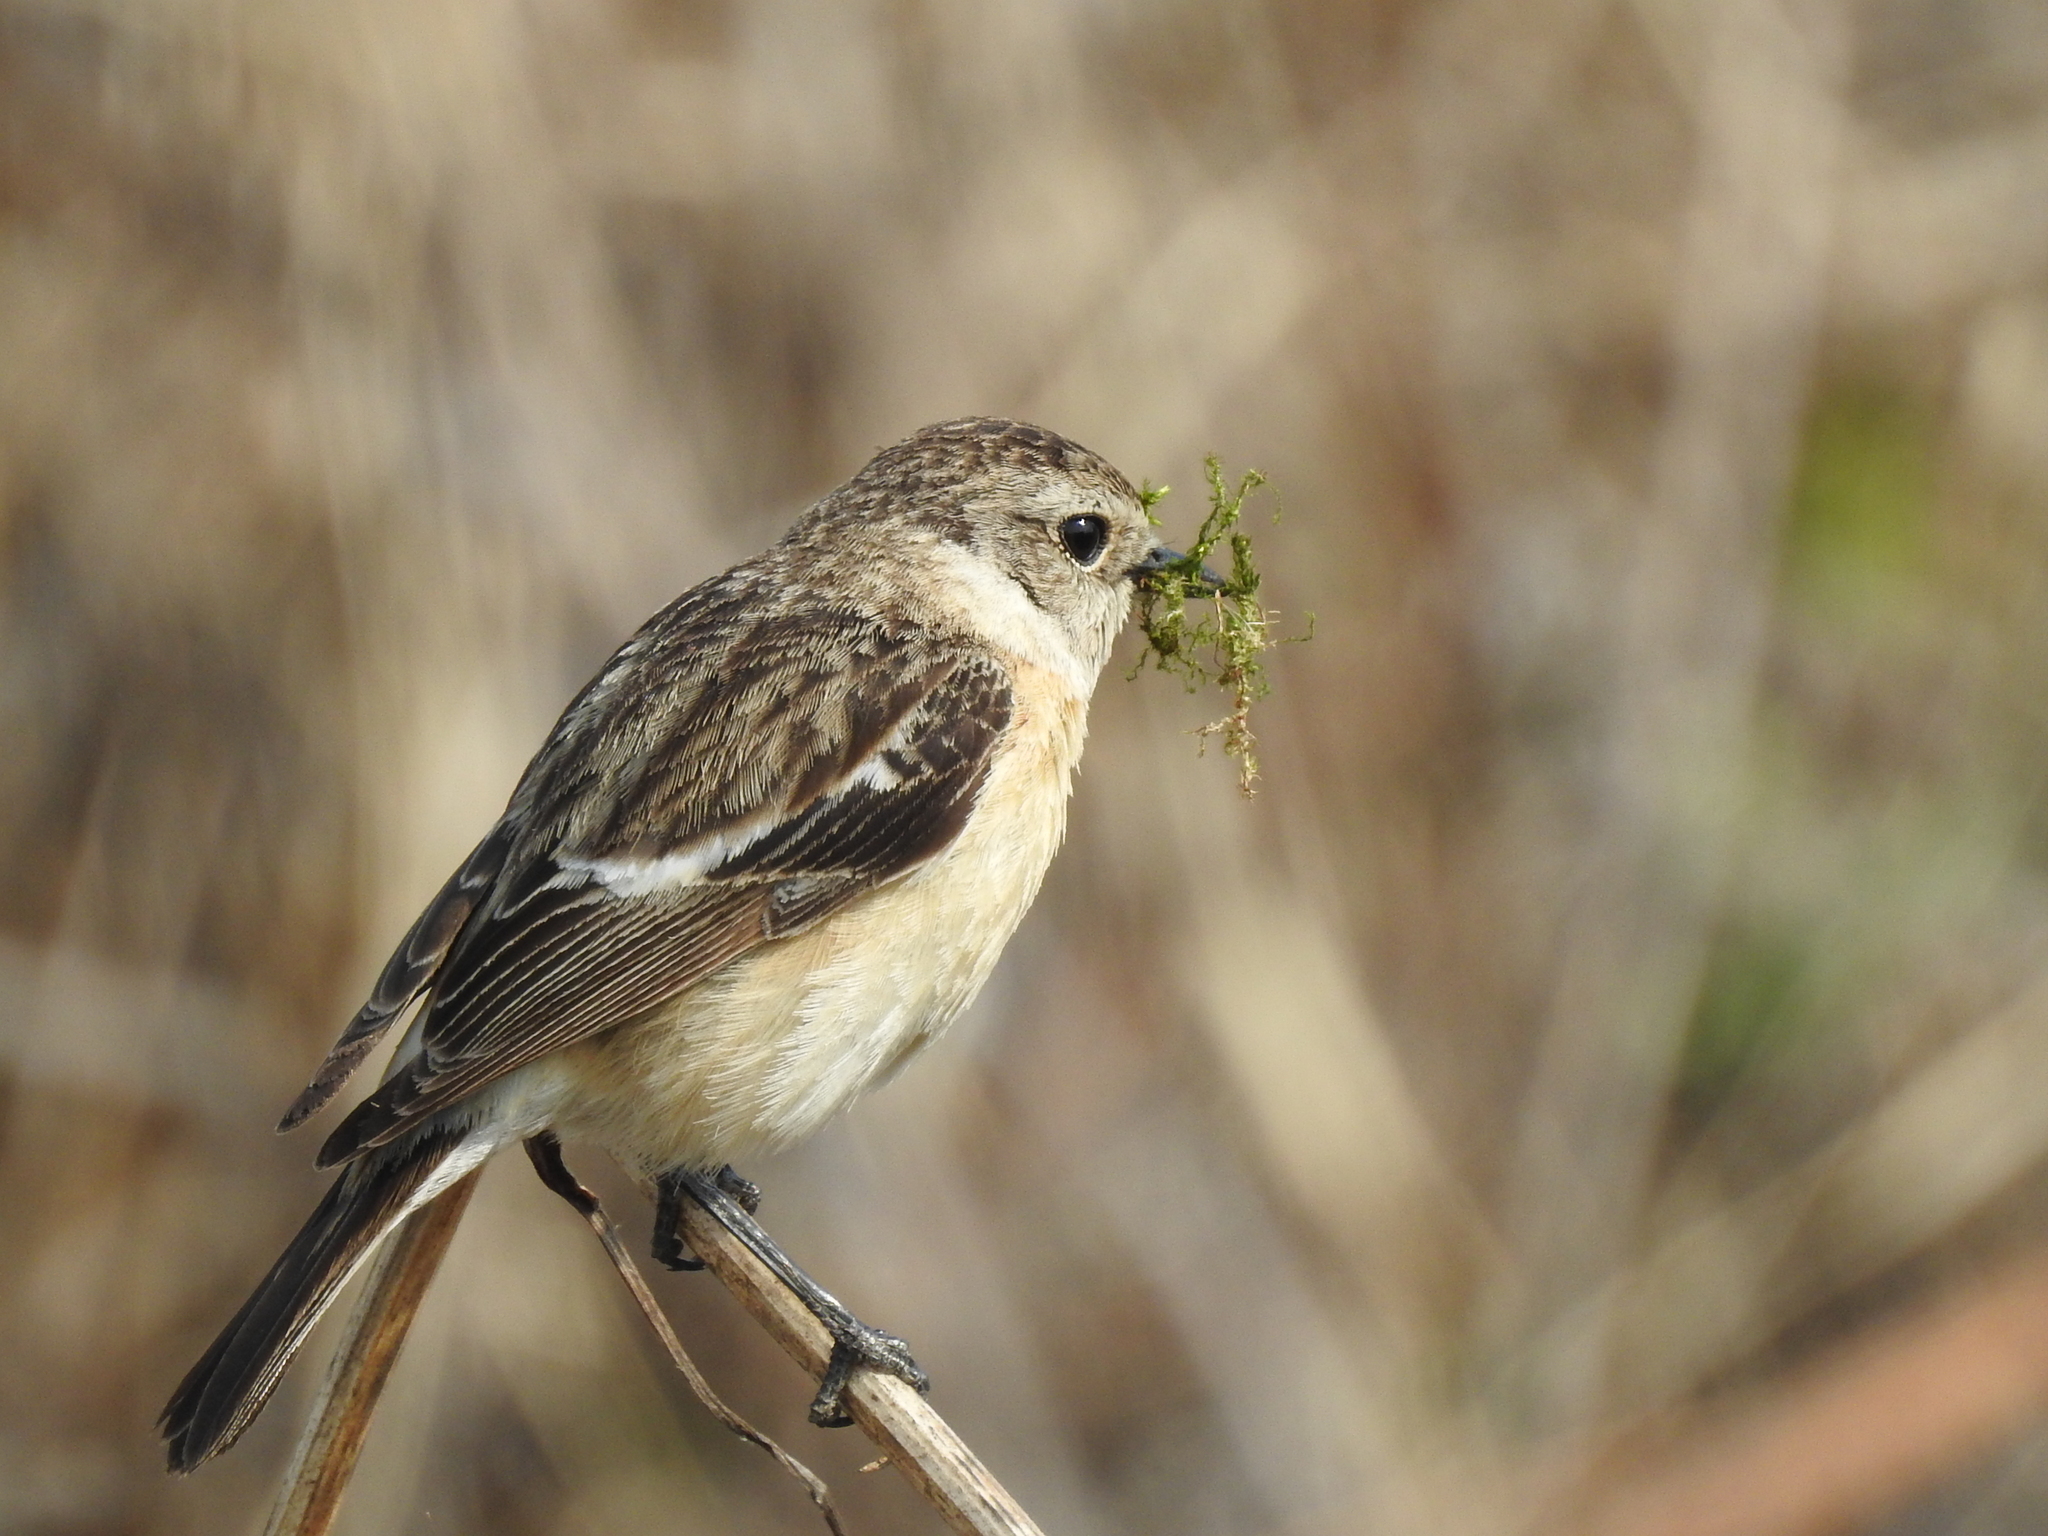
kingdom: Animalia
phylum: Chordata
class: Aves
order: Passeriformes
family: Muscicapidae
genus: Saxicola
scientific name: Saxicola maurus
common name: Siberian stonechat
